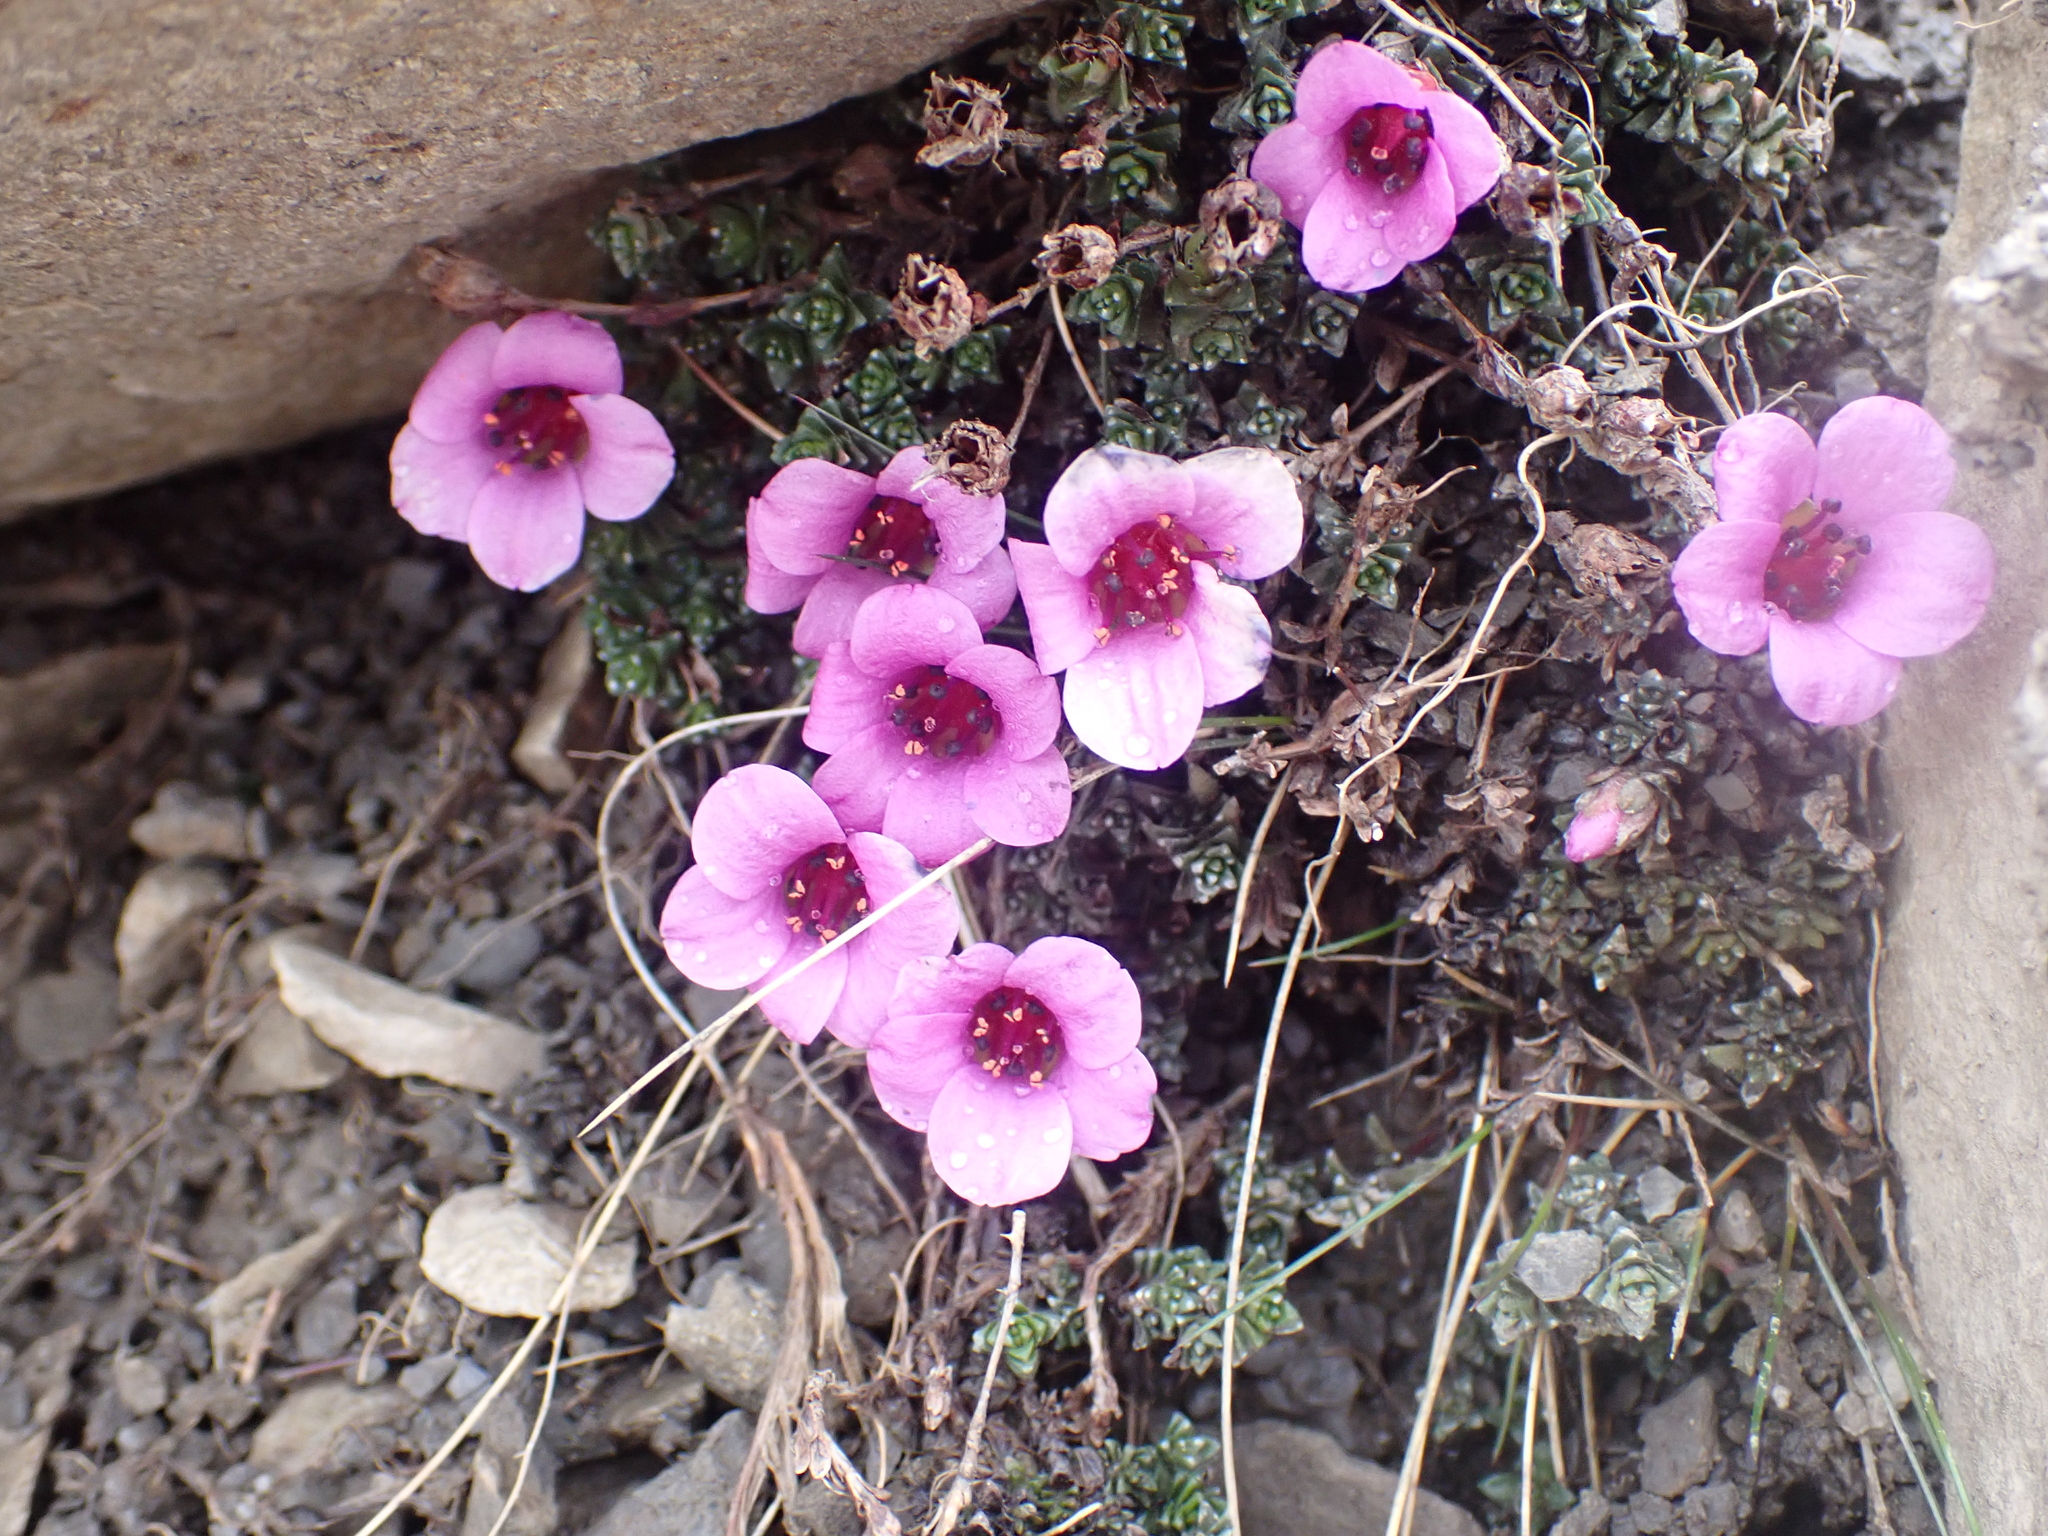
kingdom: Plantae
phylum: Tracheophyta
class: Magnoliopsida
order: Saxifragales
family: Saxifragaceae
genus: Saxifraga
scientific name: Saxifraga oppositifolia
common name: Purple saxifrage
